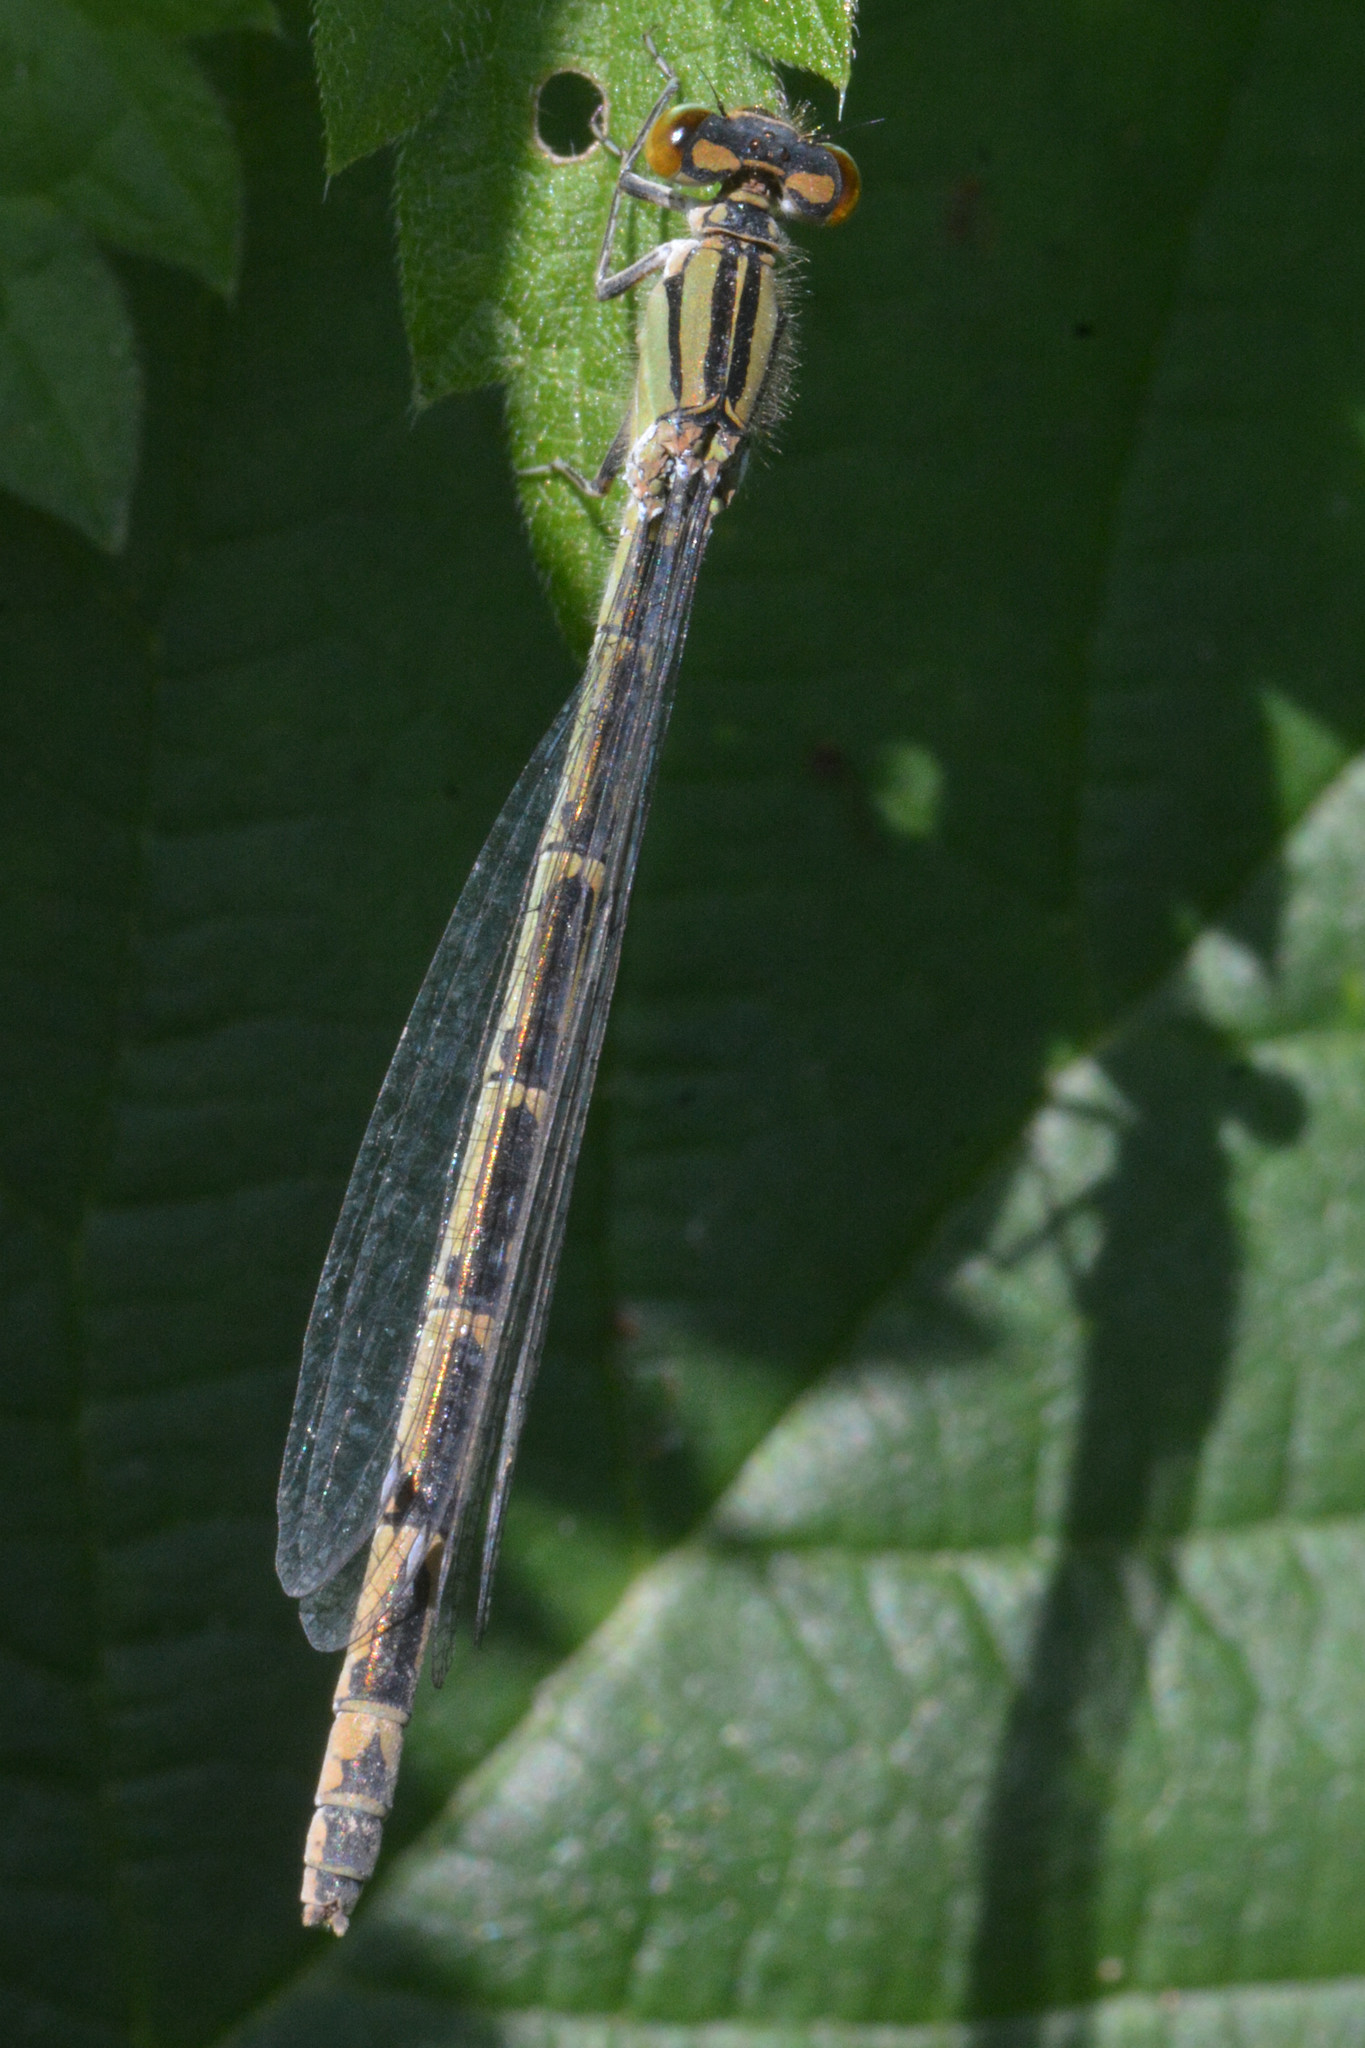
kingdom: Animalia
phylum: Arthropoda
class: Insecta
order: Odonata
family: Coenagrionidae
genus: Enallagma
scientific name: Enallagma cyathigerum
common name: Common blue damselfly
